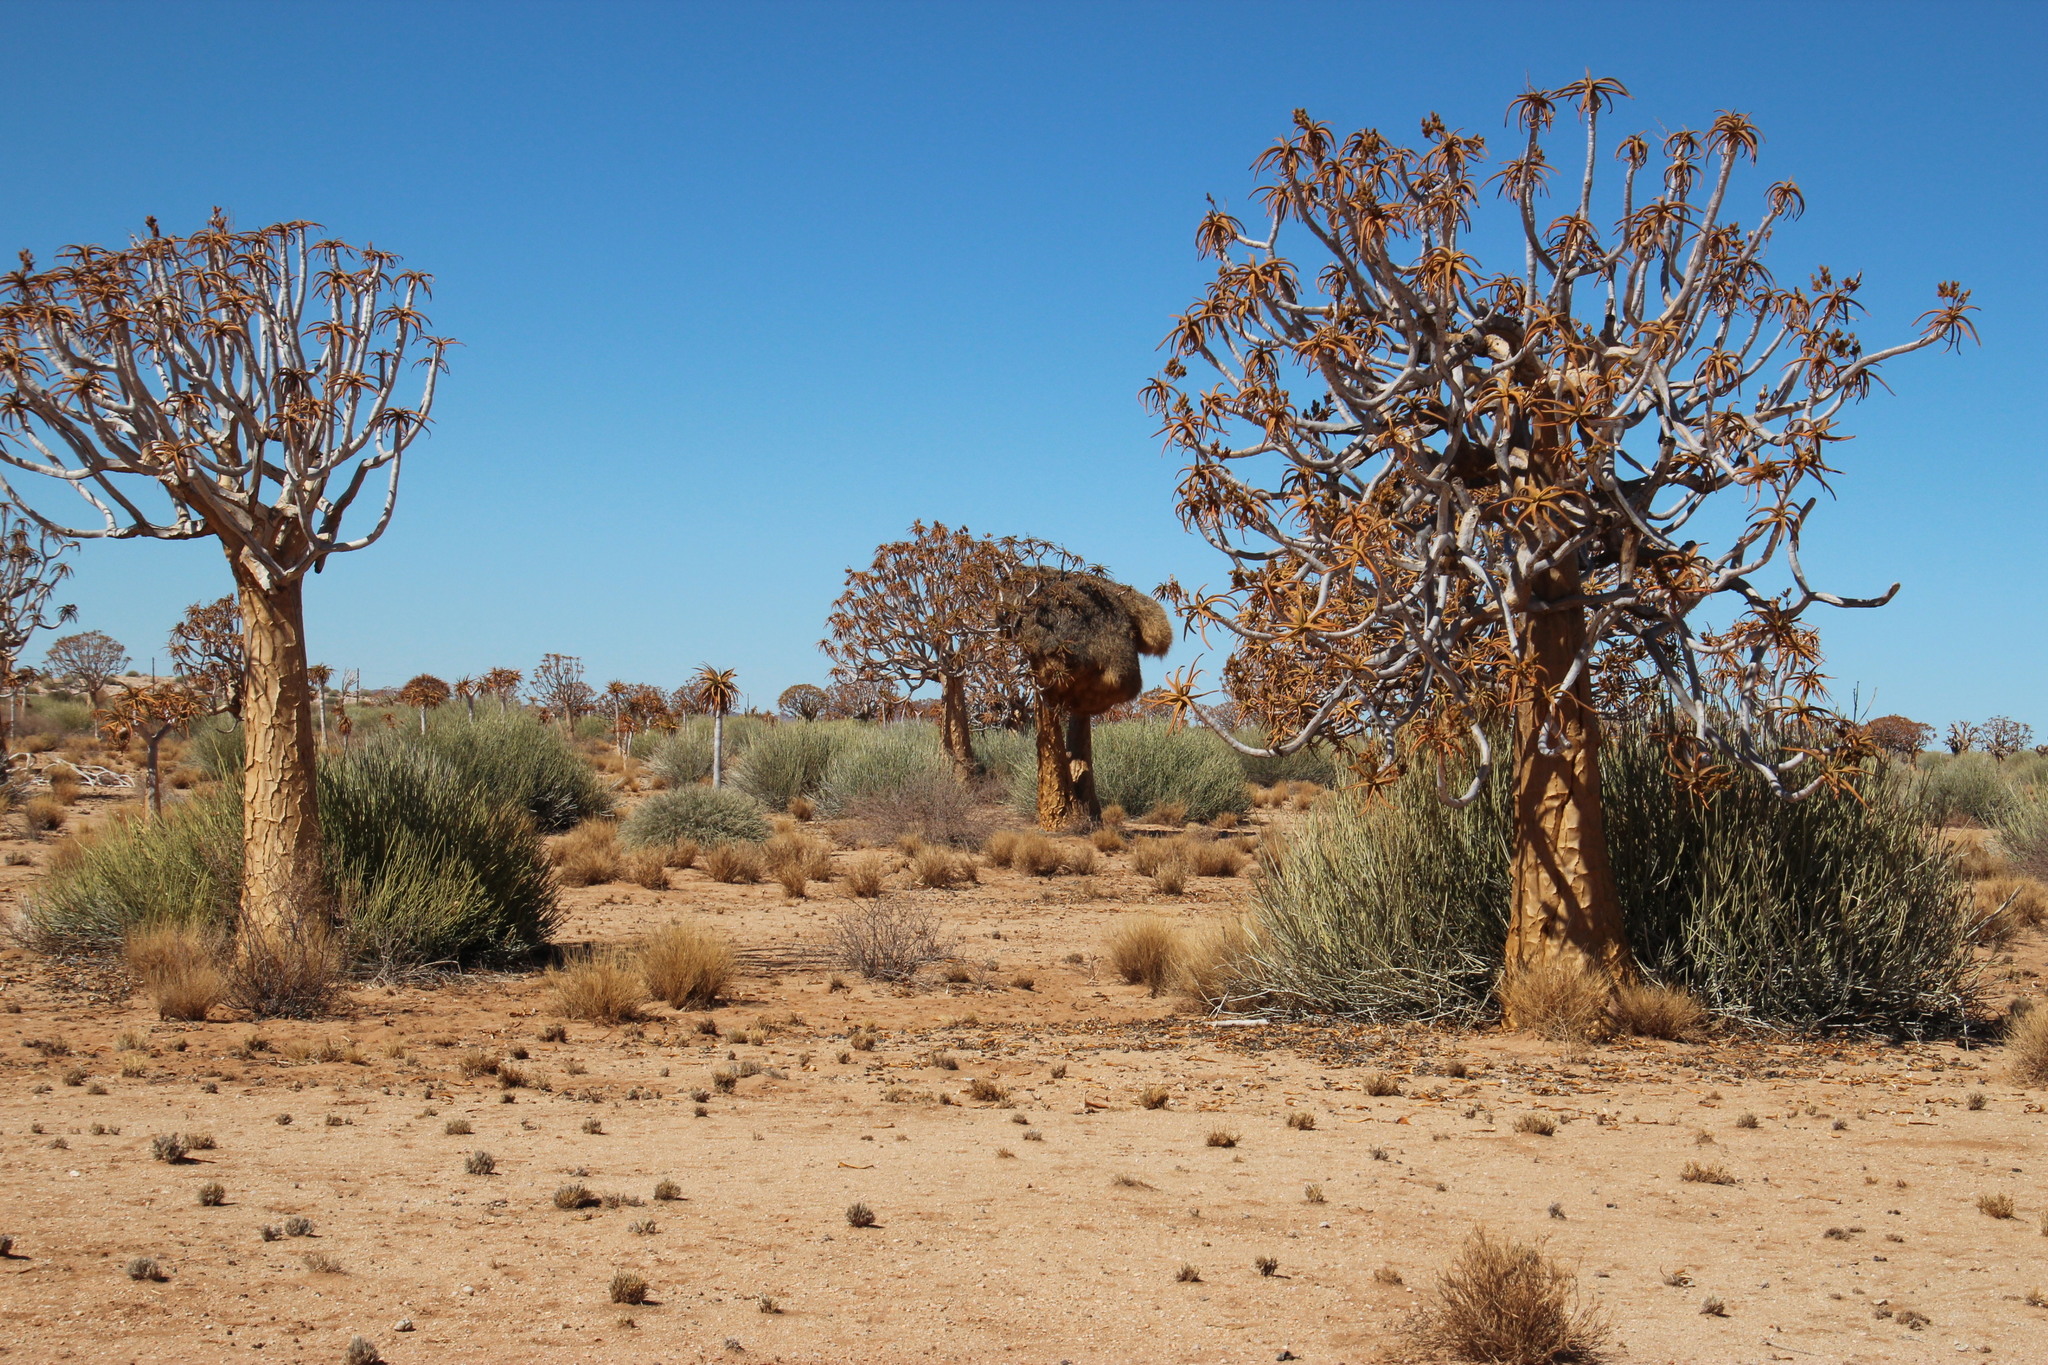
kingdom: Animalia
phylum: Chordata
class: Aves
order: Passeriformes
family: Passeridae
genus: Philetairus
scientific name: Philetairus socius
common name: Sociable weaver
